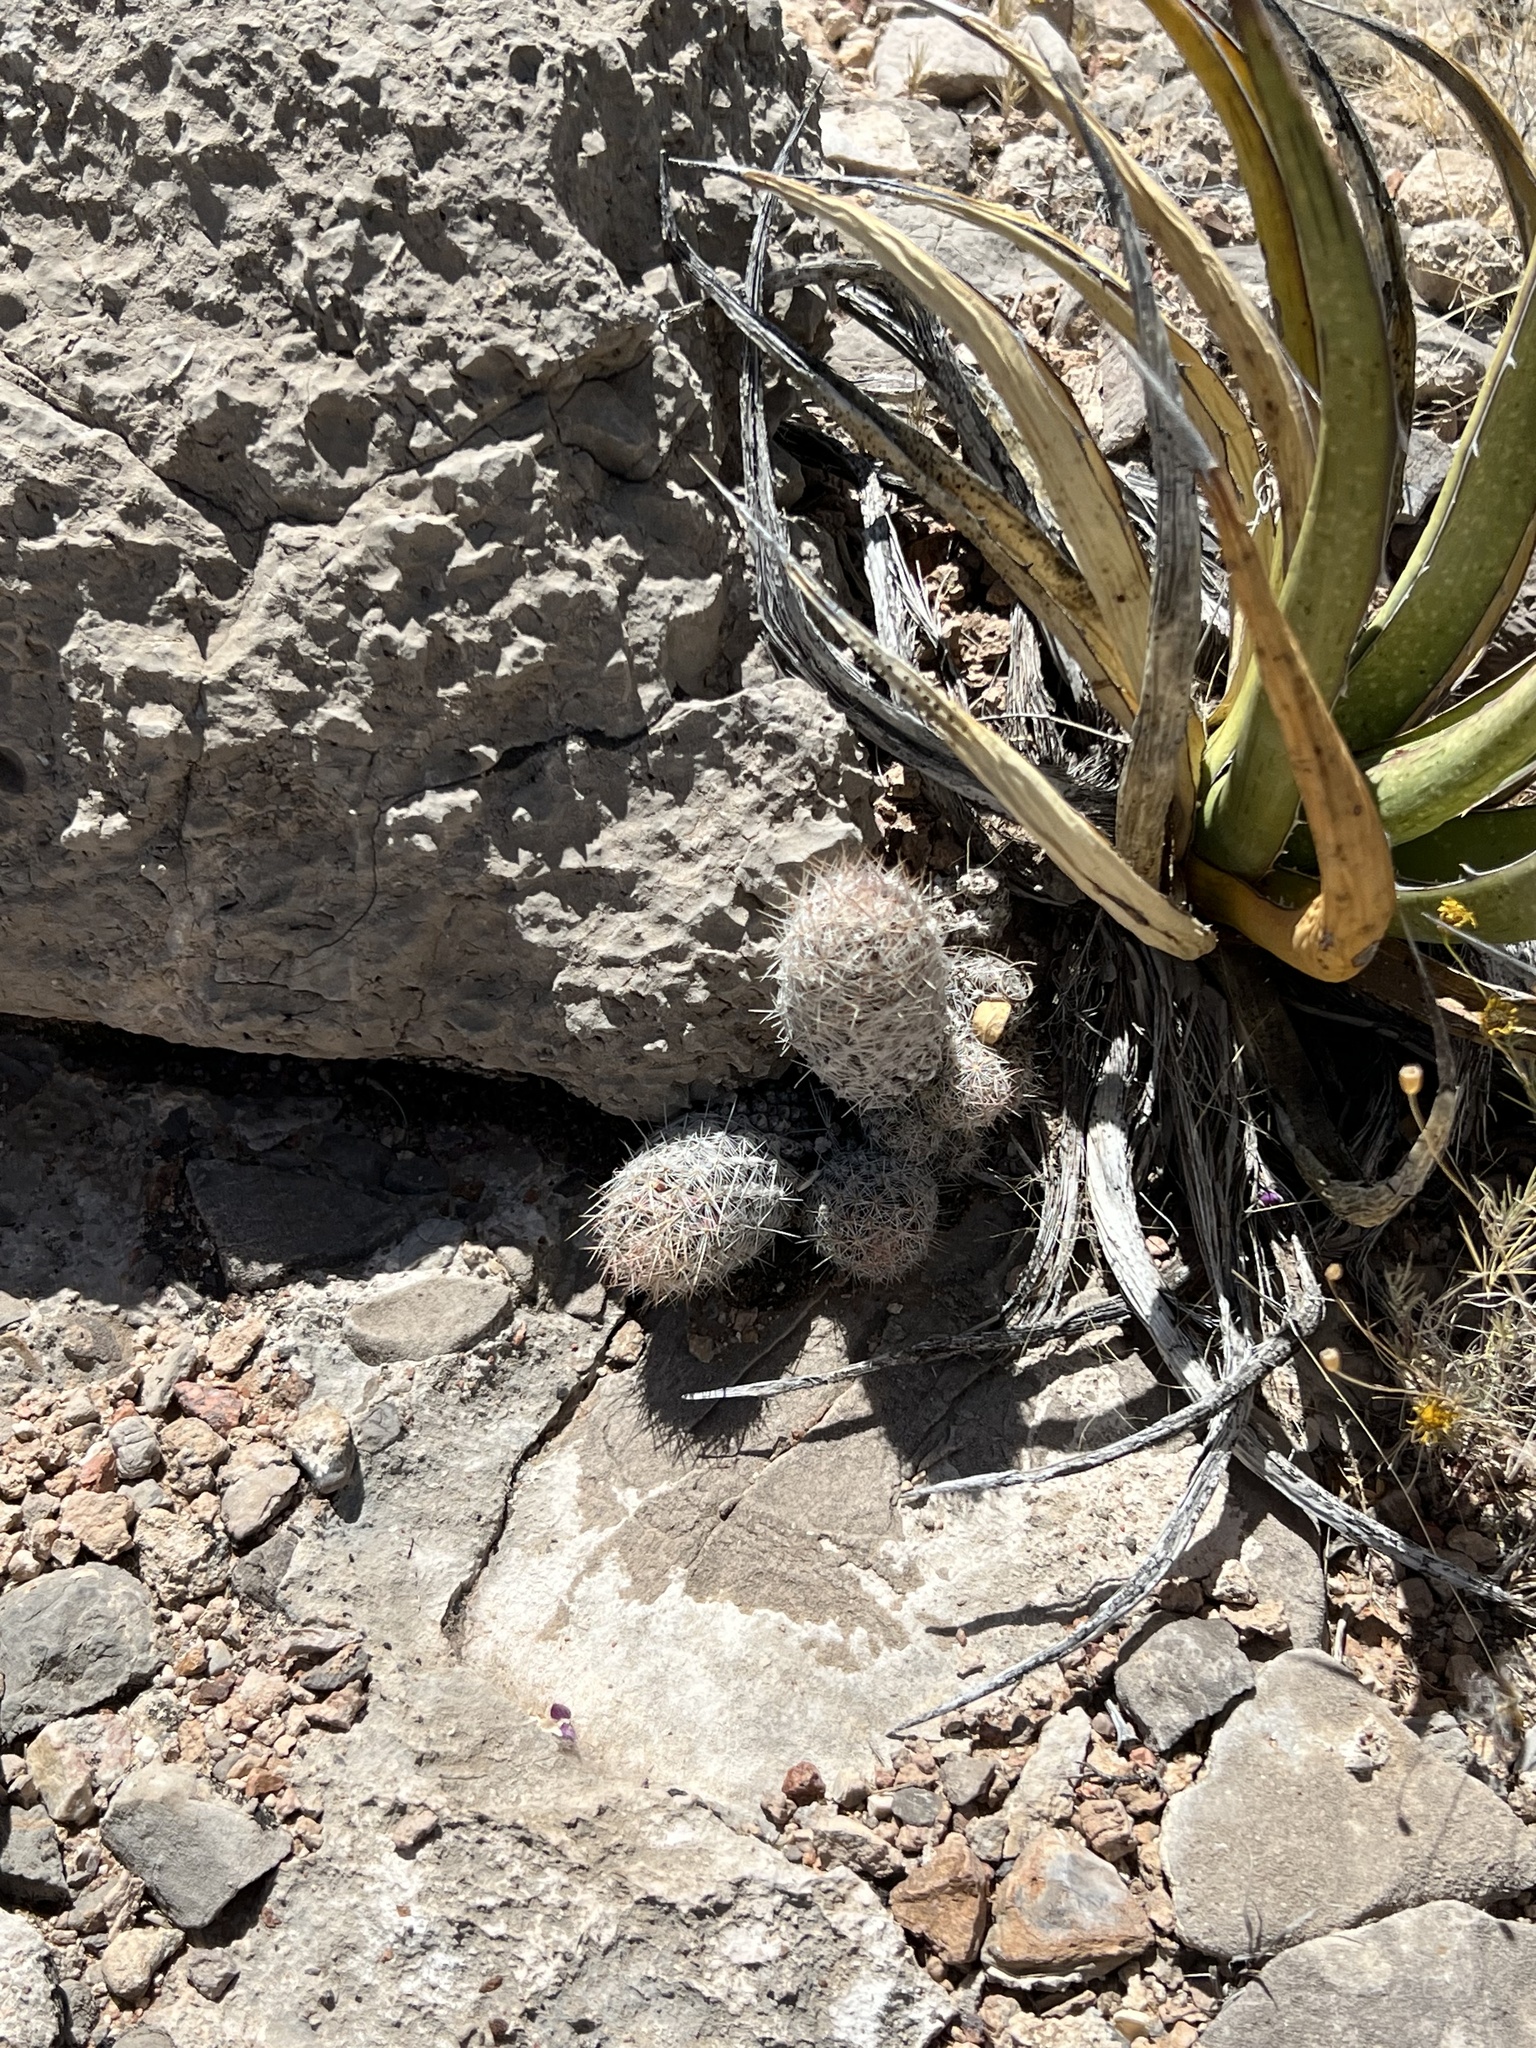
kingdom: Plantae
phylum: Tracheophyta
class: Magnoliopsida
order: Caryophyllales
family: Cactaceae
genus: Pelecyphora
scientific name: Pelecyphora tuberculosa
